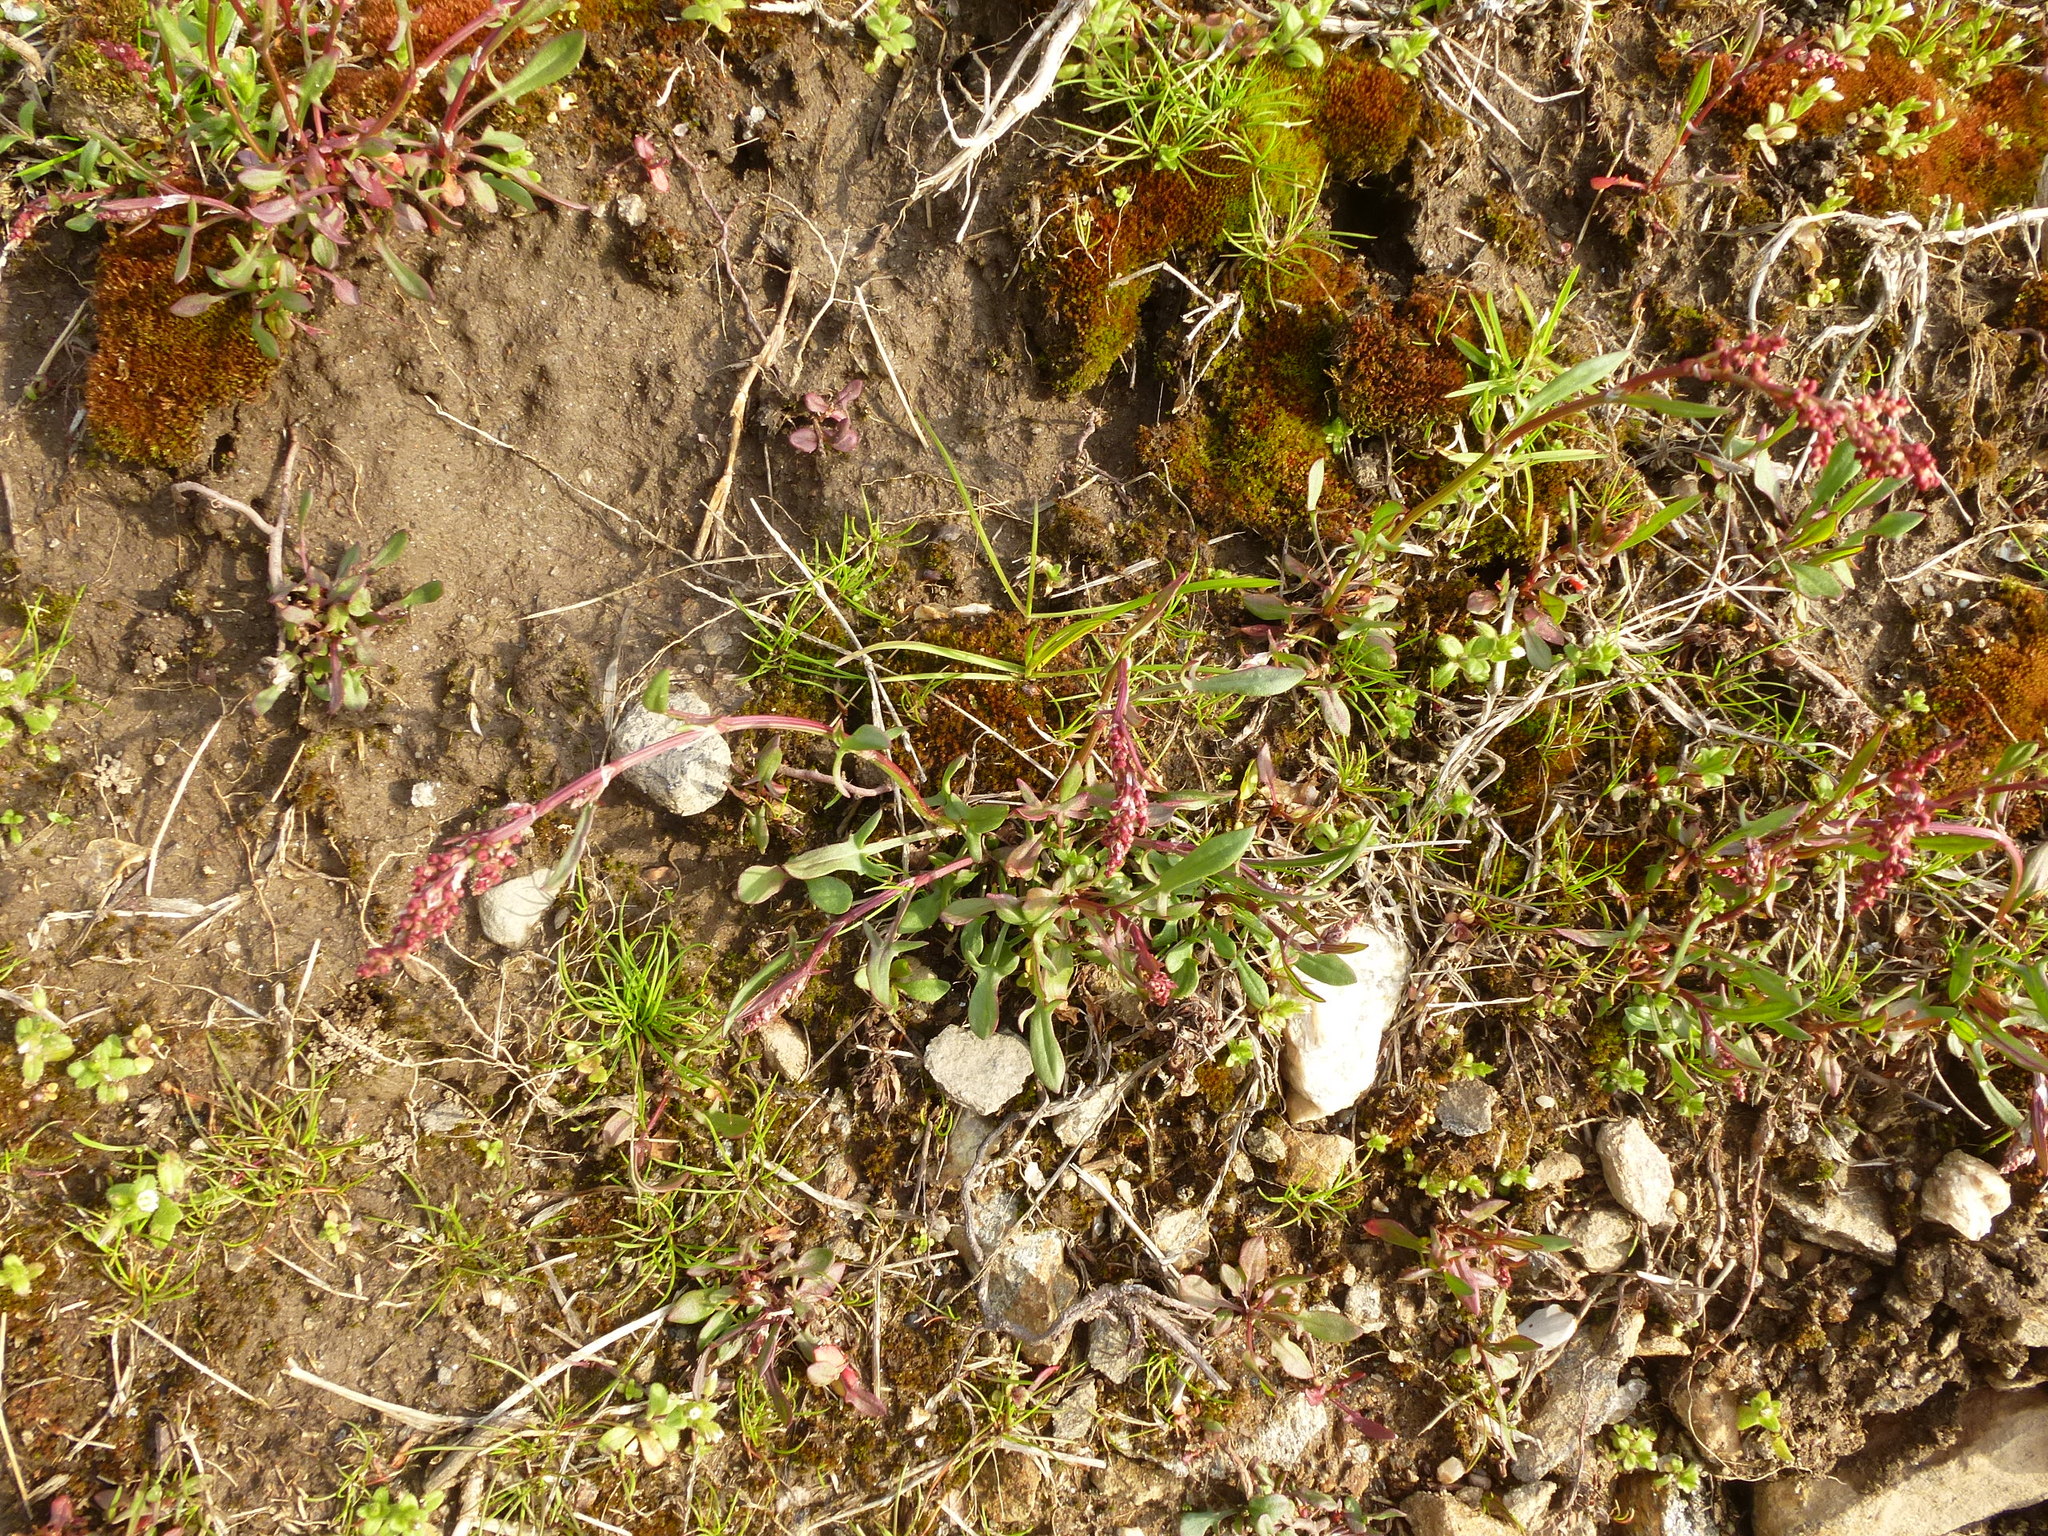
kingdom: Plantae
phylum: Tracheophyta
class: Magnoliopsida
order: Caryophyllales
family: Polygonaceae
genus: Rumex
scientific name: Rumex acetosella
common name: Common sheep sorrel
